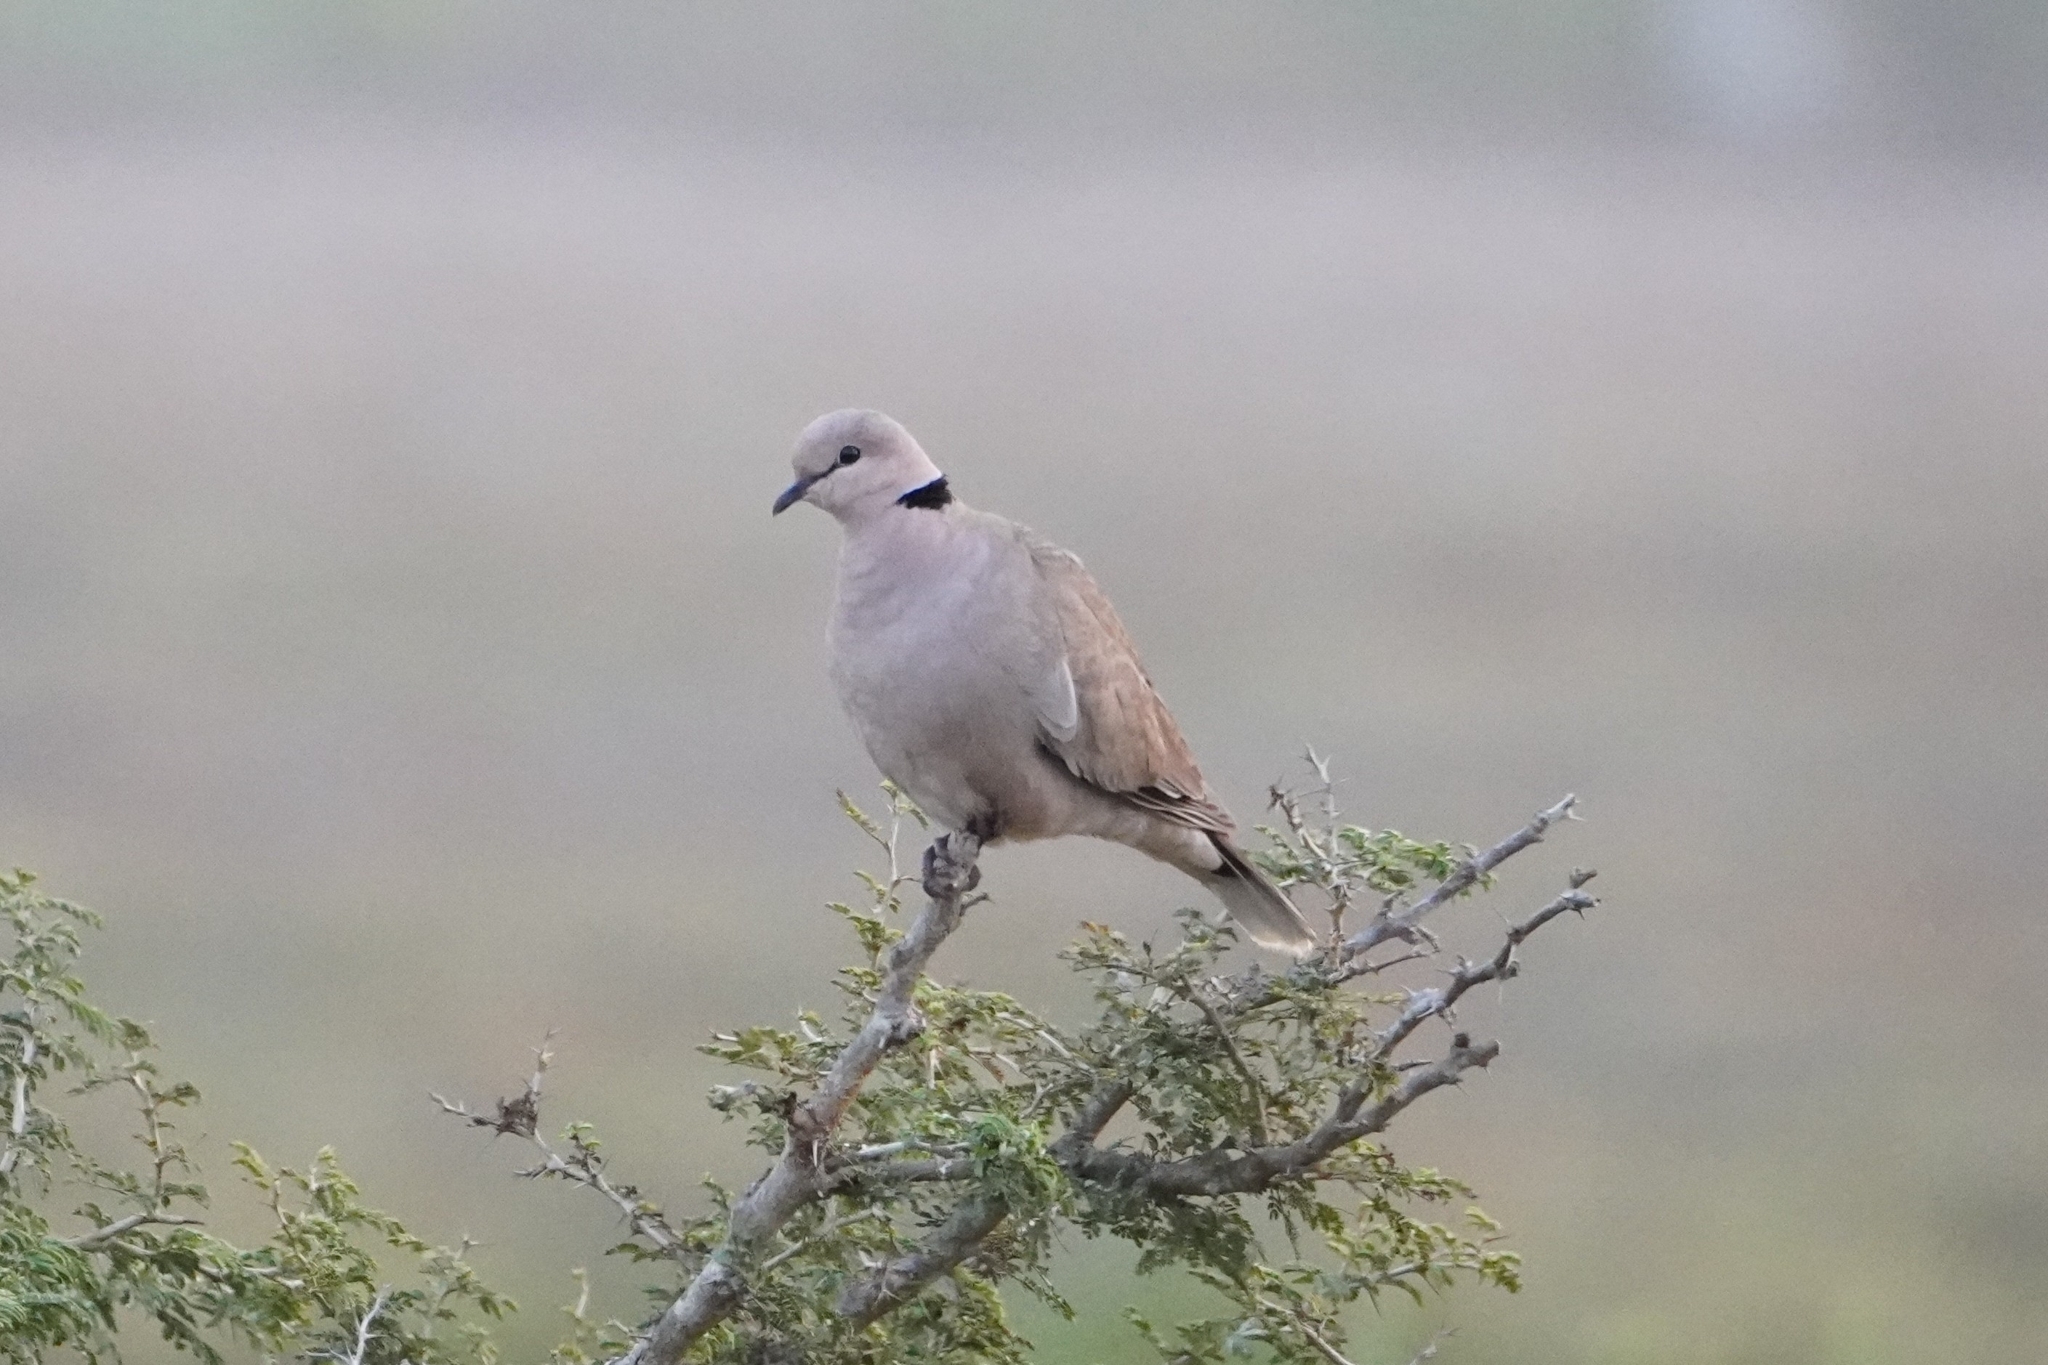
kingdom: Animalia
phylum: Chordata
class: Aves
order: Columbiformes
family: Columbidae
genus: Streptopelia
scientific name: Streptopelia vinacea
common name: Vinaceous dove
